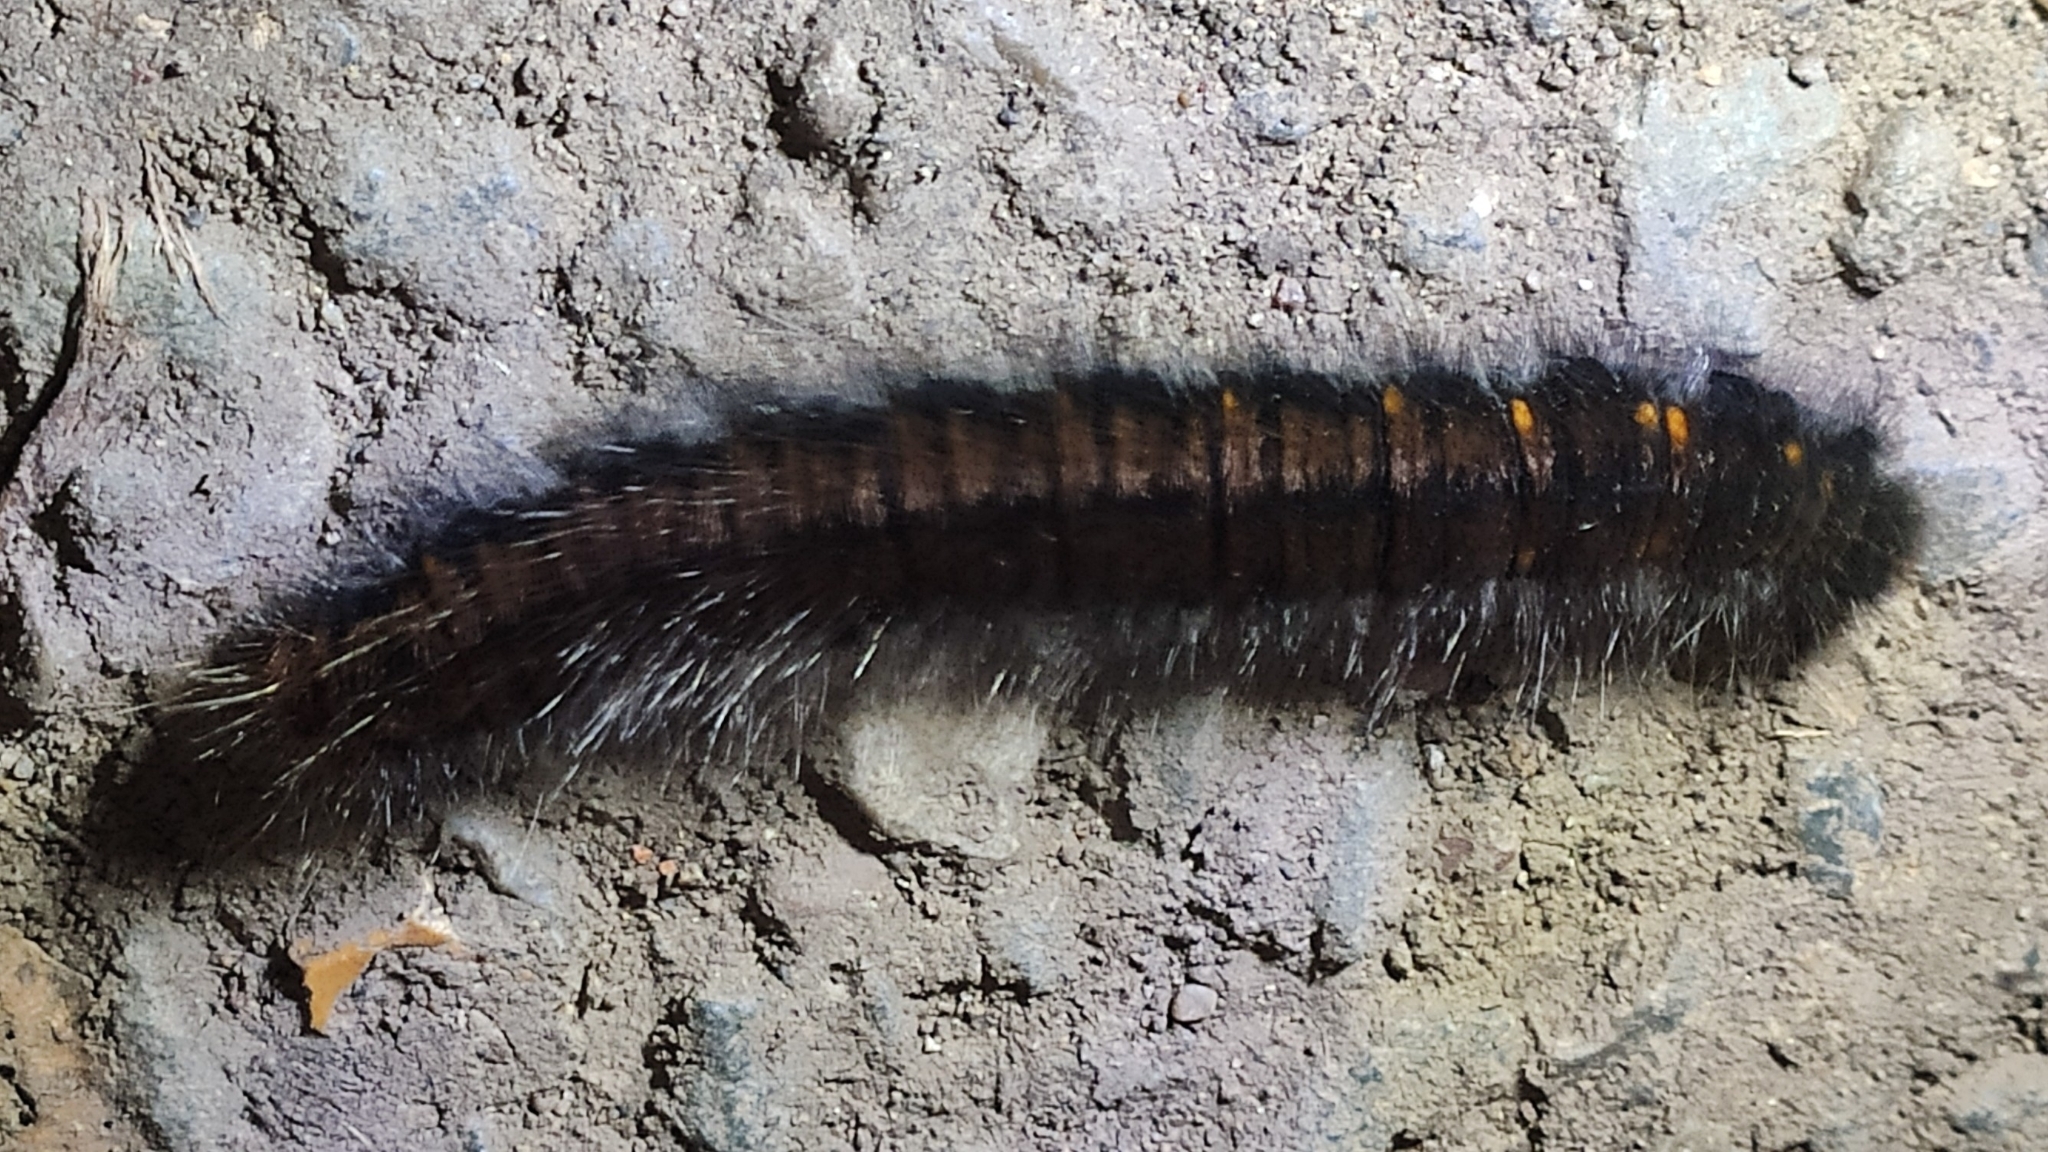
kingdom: Animalia
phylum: Arthropoda
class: Insecta
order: Lepidoptera
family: Lasiocampidae
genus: Macrothylacia
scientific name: Macrothylacia rubi
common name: Fox moth
